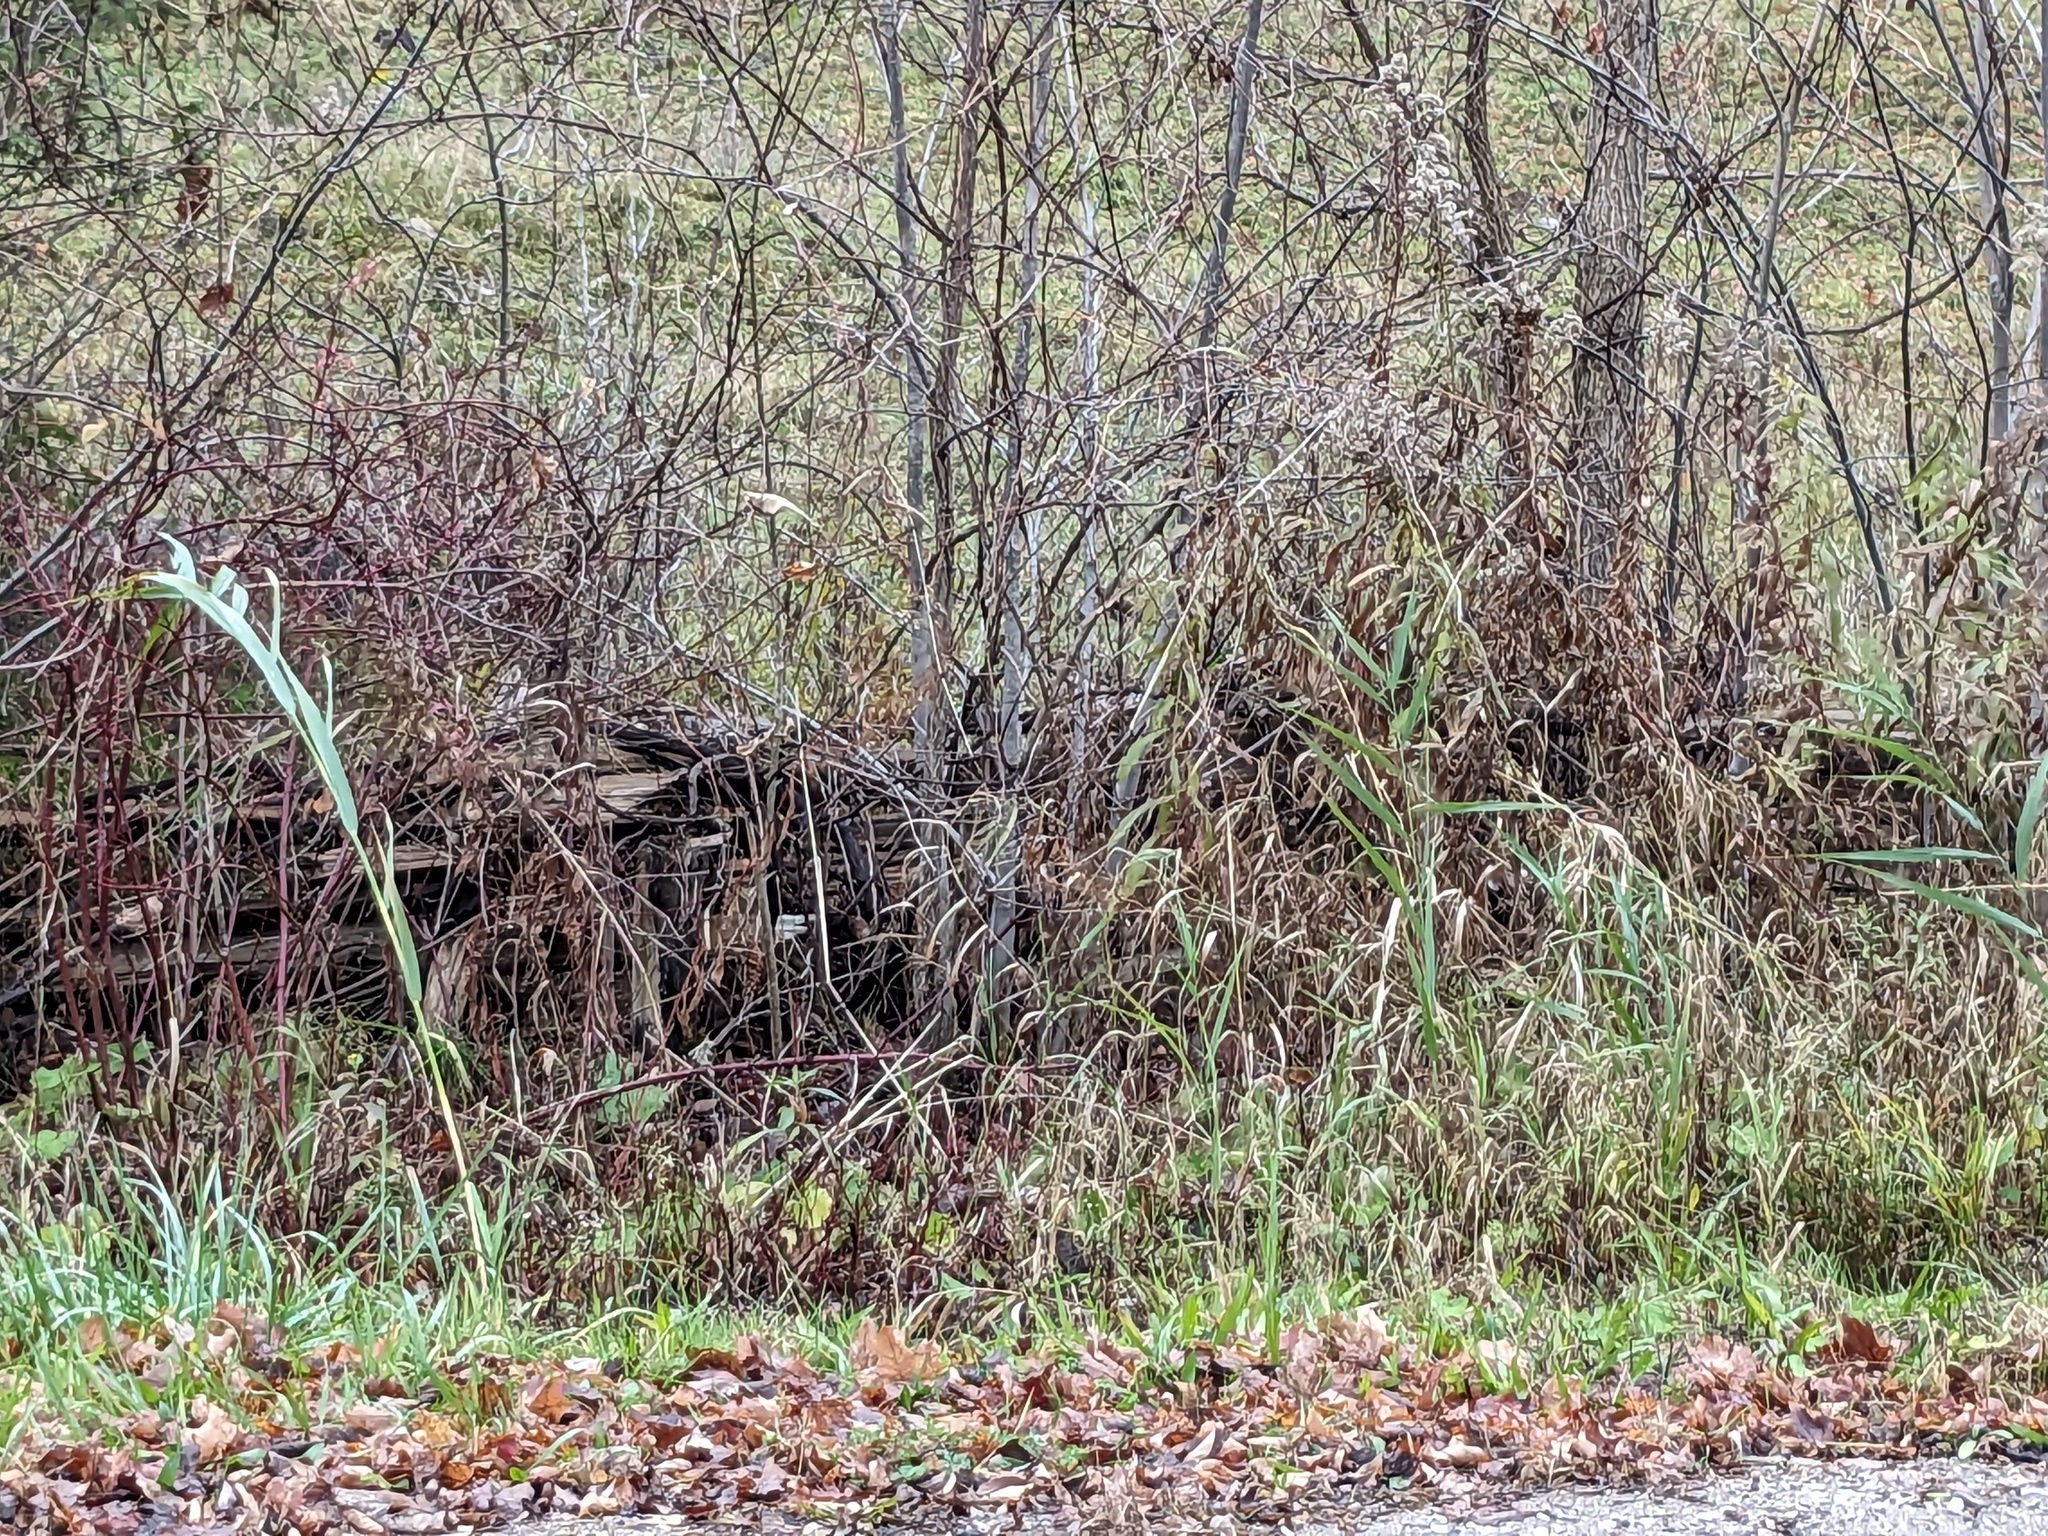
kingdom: Plantae
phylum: Tracheophyta
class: Liliopsida
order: Poales
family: Poaceae
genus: Phragmites
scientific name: Phragmites australis
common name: Common reed
